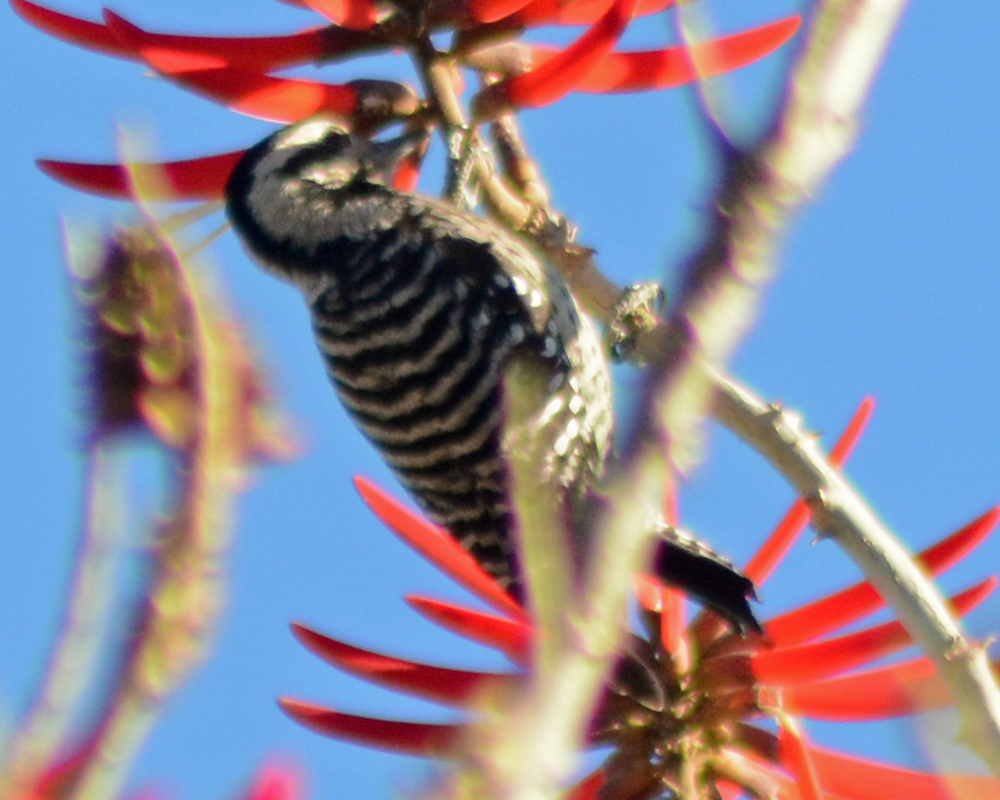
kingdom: Animalia
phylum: Chordata
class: Aves
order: Piciformes
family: Picidae
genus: Dryobates
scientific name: Dryobates scalaris
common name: Ladder-backed woodpecker
